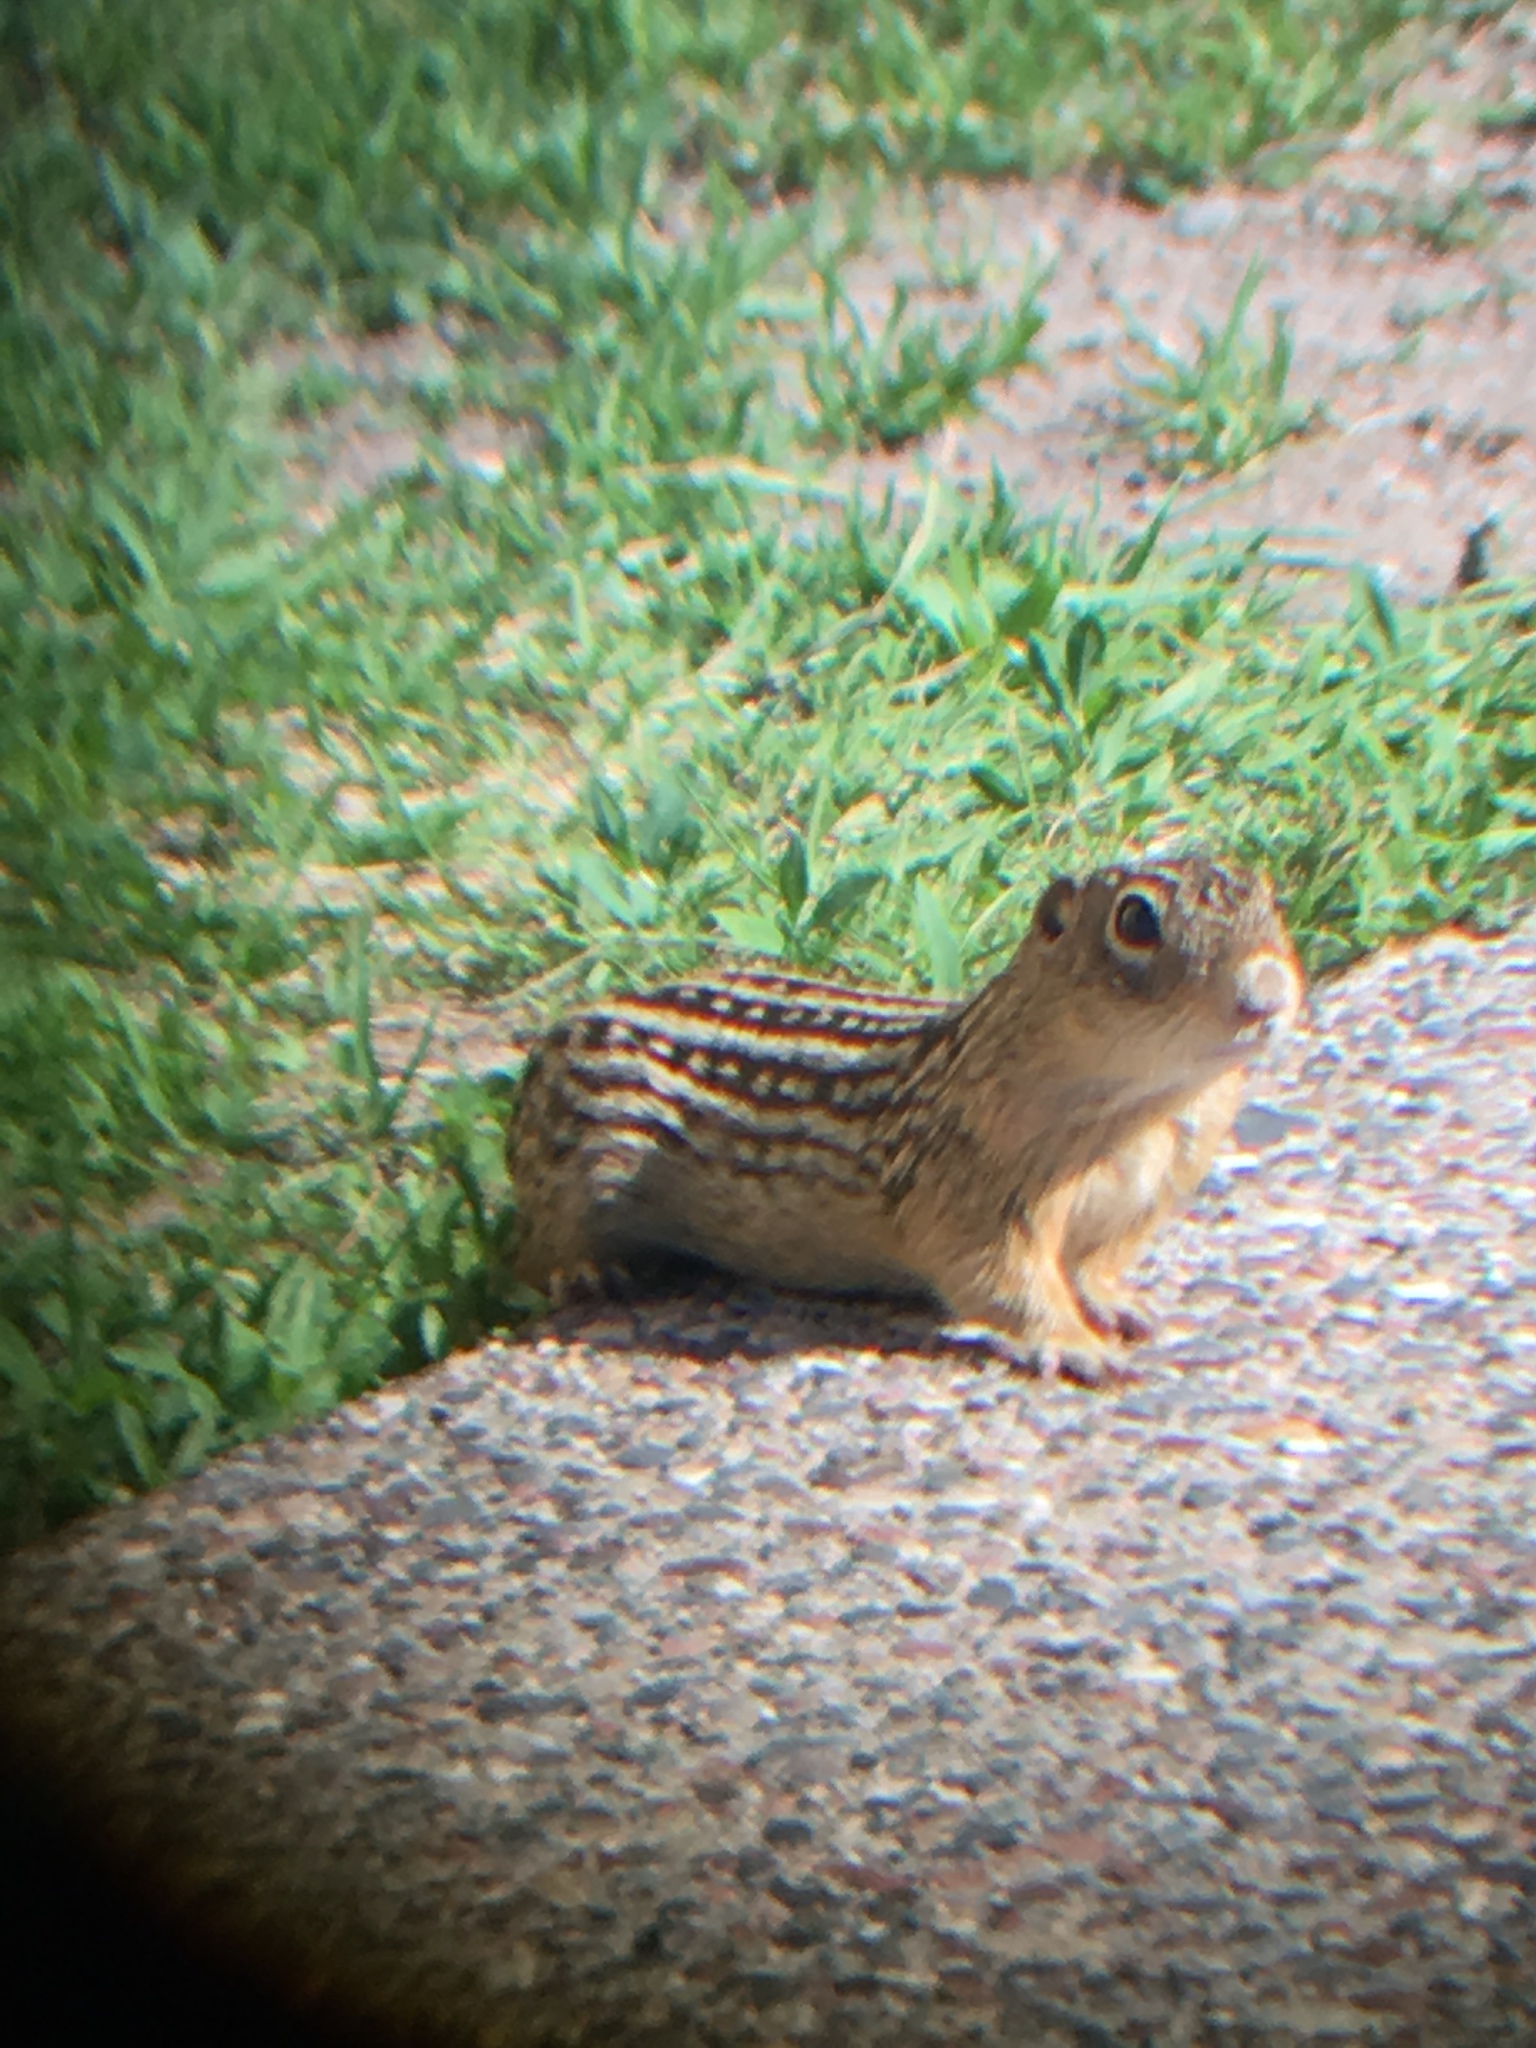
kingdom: Animalia
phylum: Chordata
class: Mammalia
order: Rodentia
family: Sciuridae
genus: Ictidomys
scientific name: Ictidomys tridecemlineatus
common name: Thirteen-lined ground squirrel
